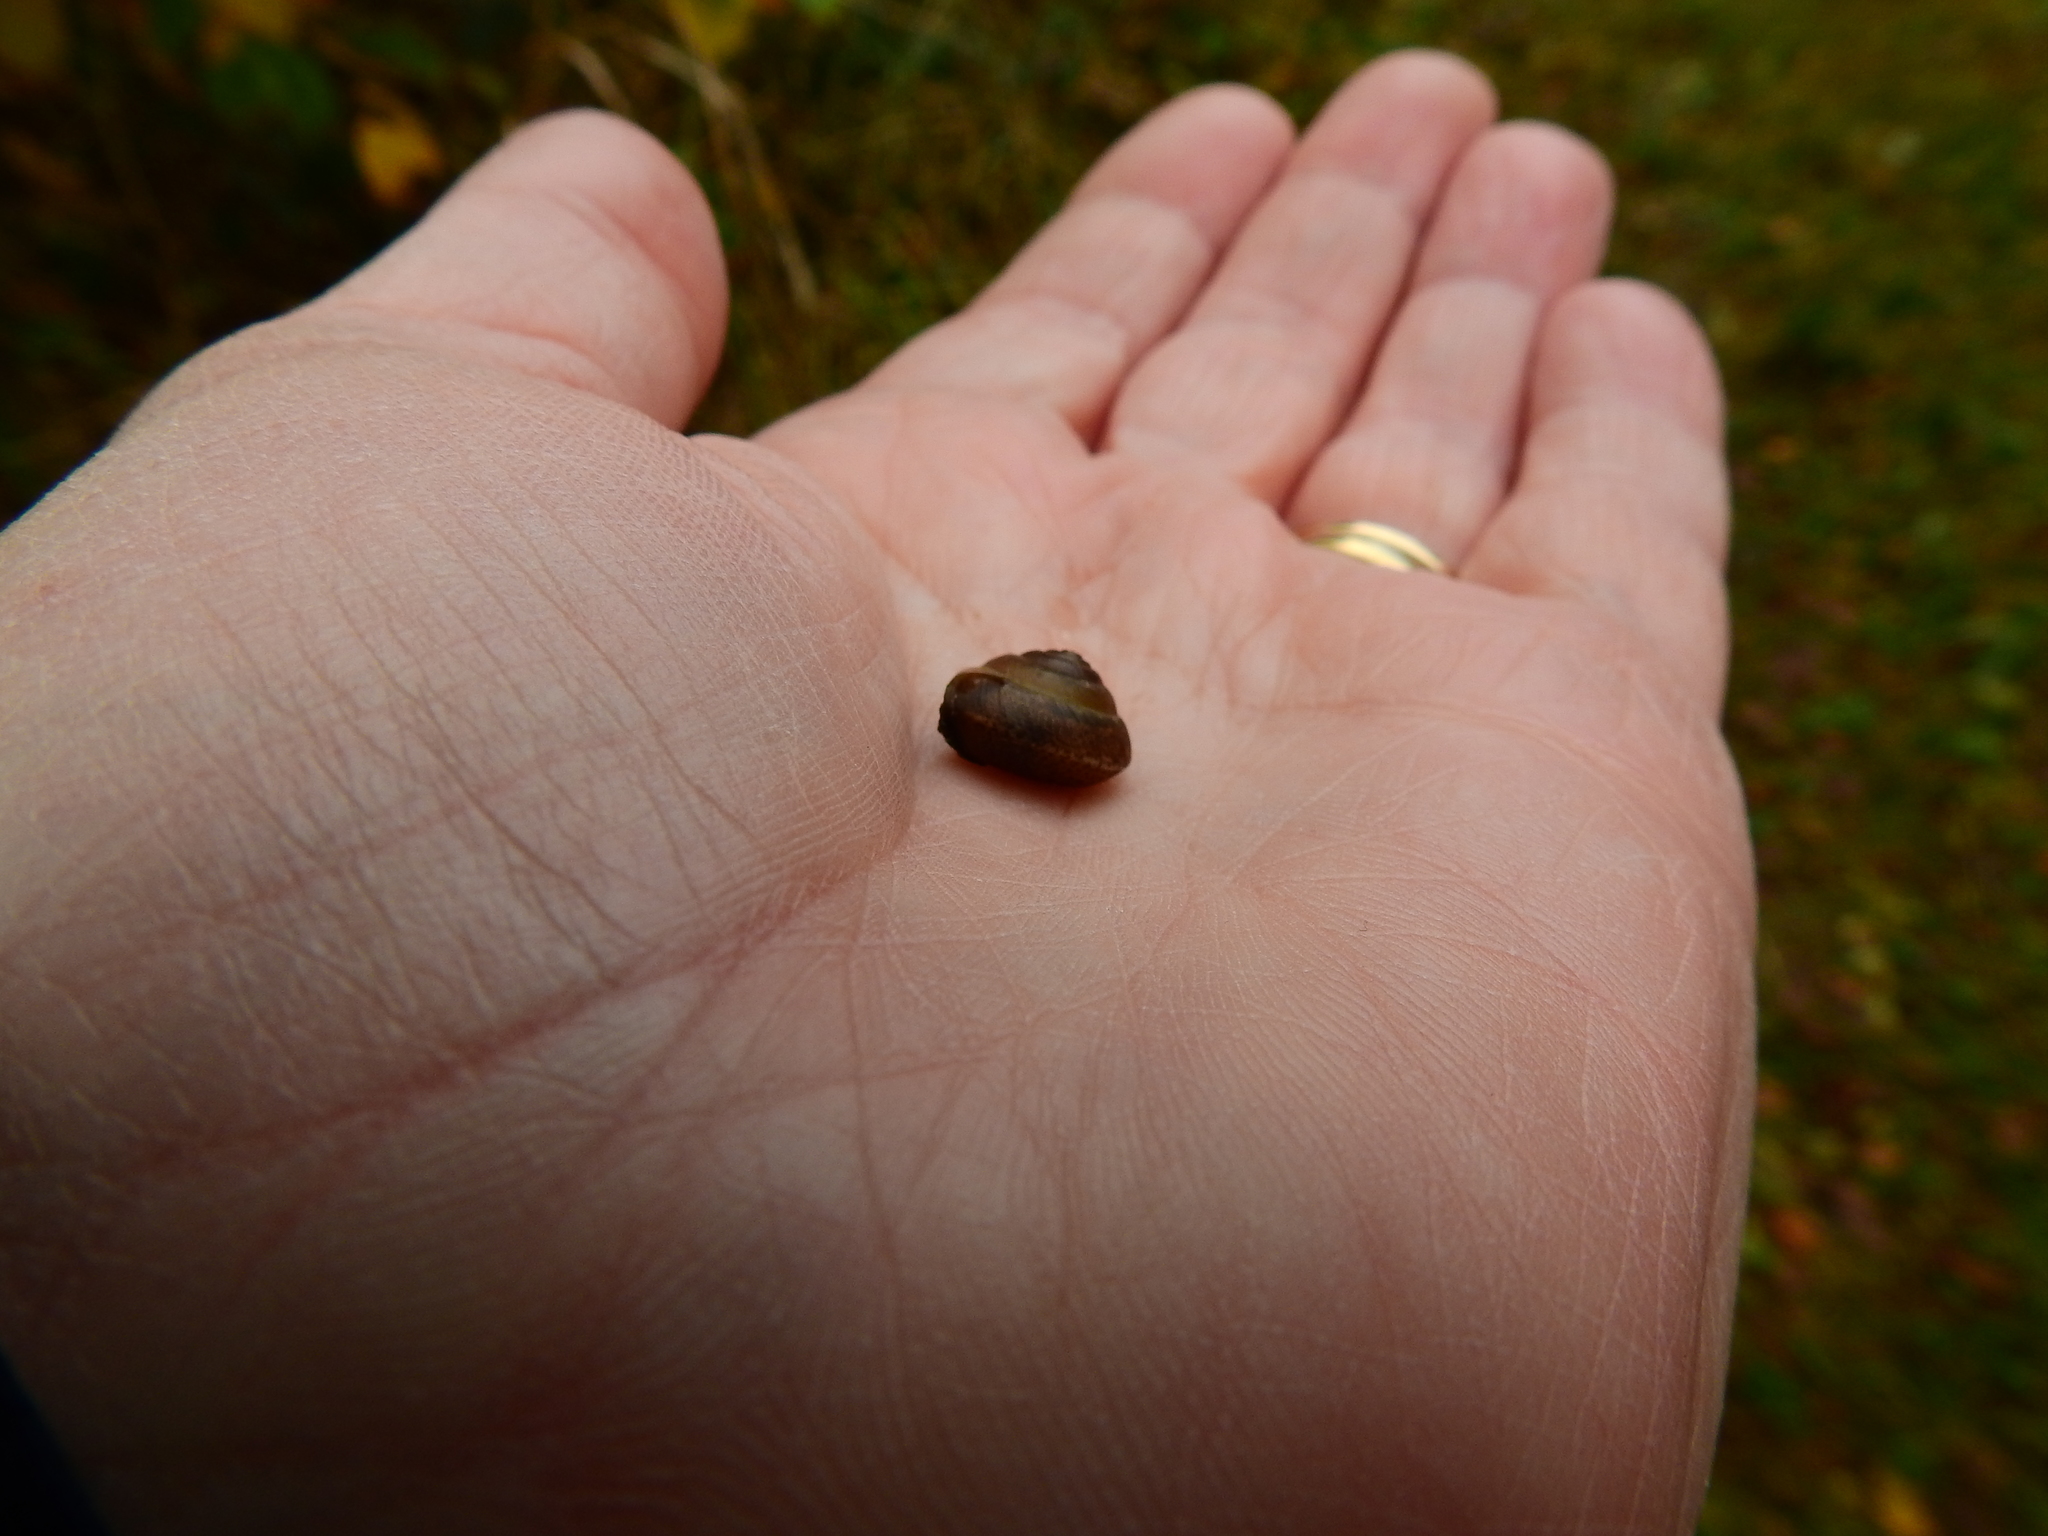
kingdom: Animalia
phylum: Mollusca
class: Gastropoda
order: Stylommatophora
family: Hygromiidae
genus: Hygromia
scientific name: Hygromia cinctella
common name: Girdled snail
